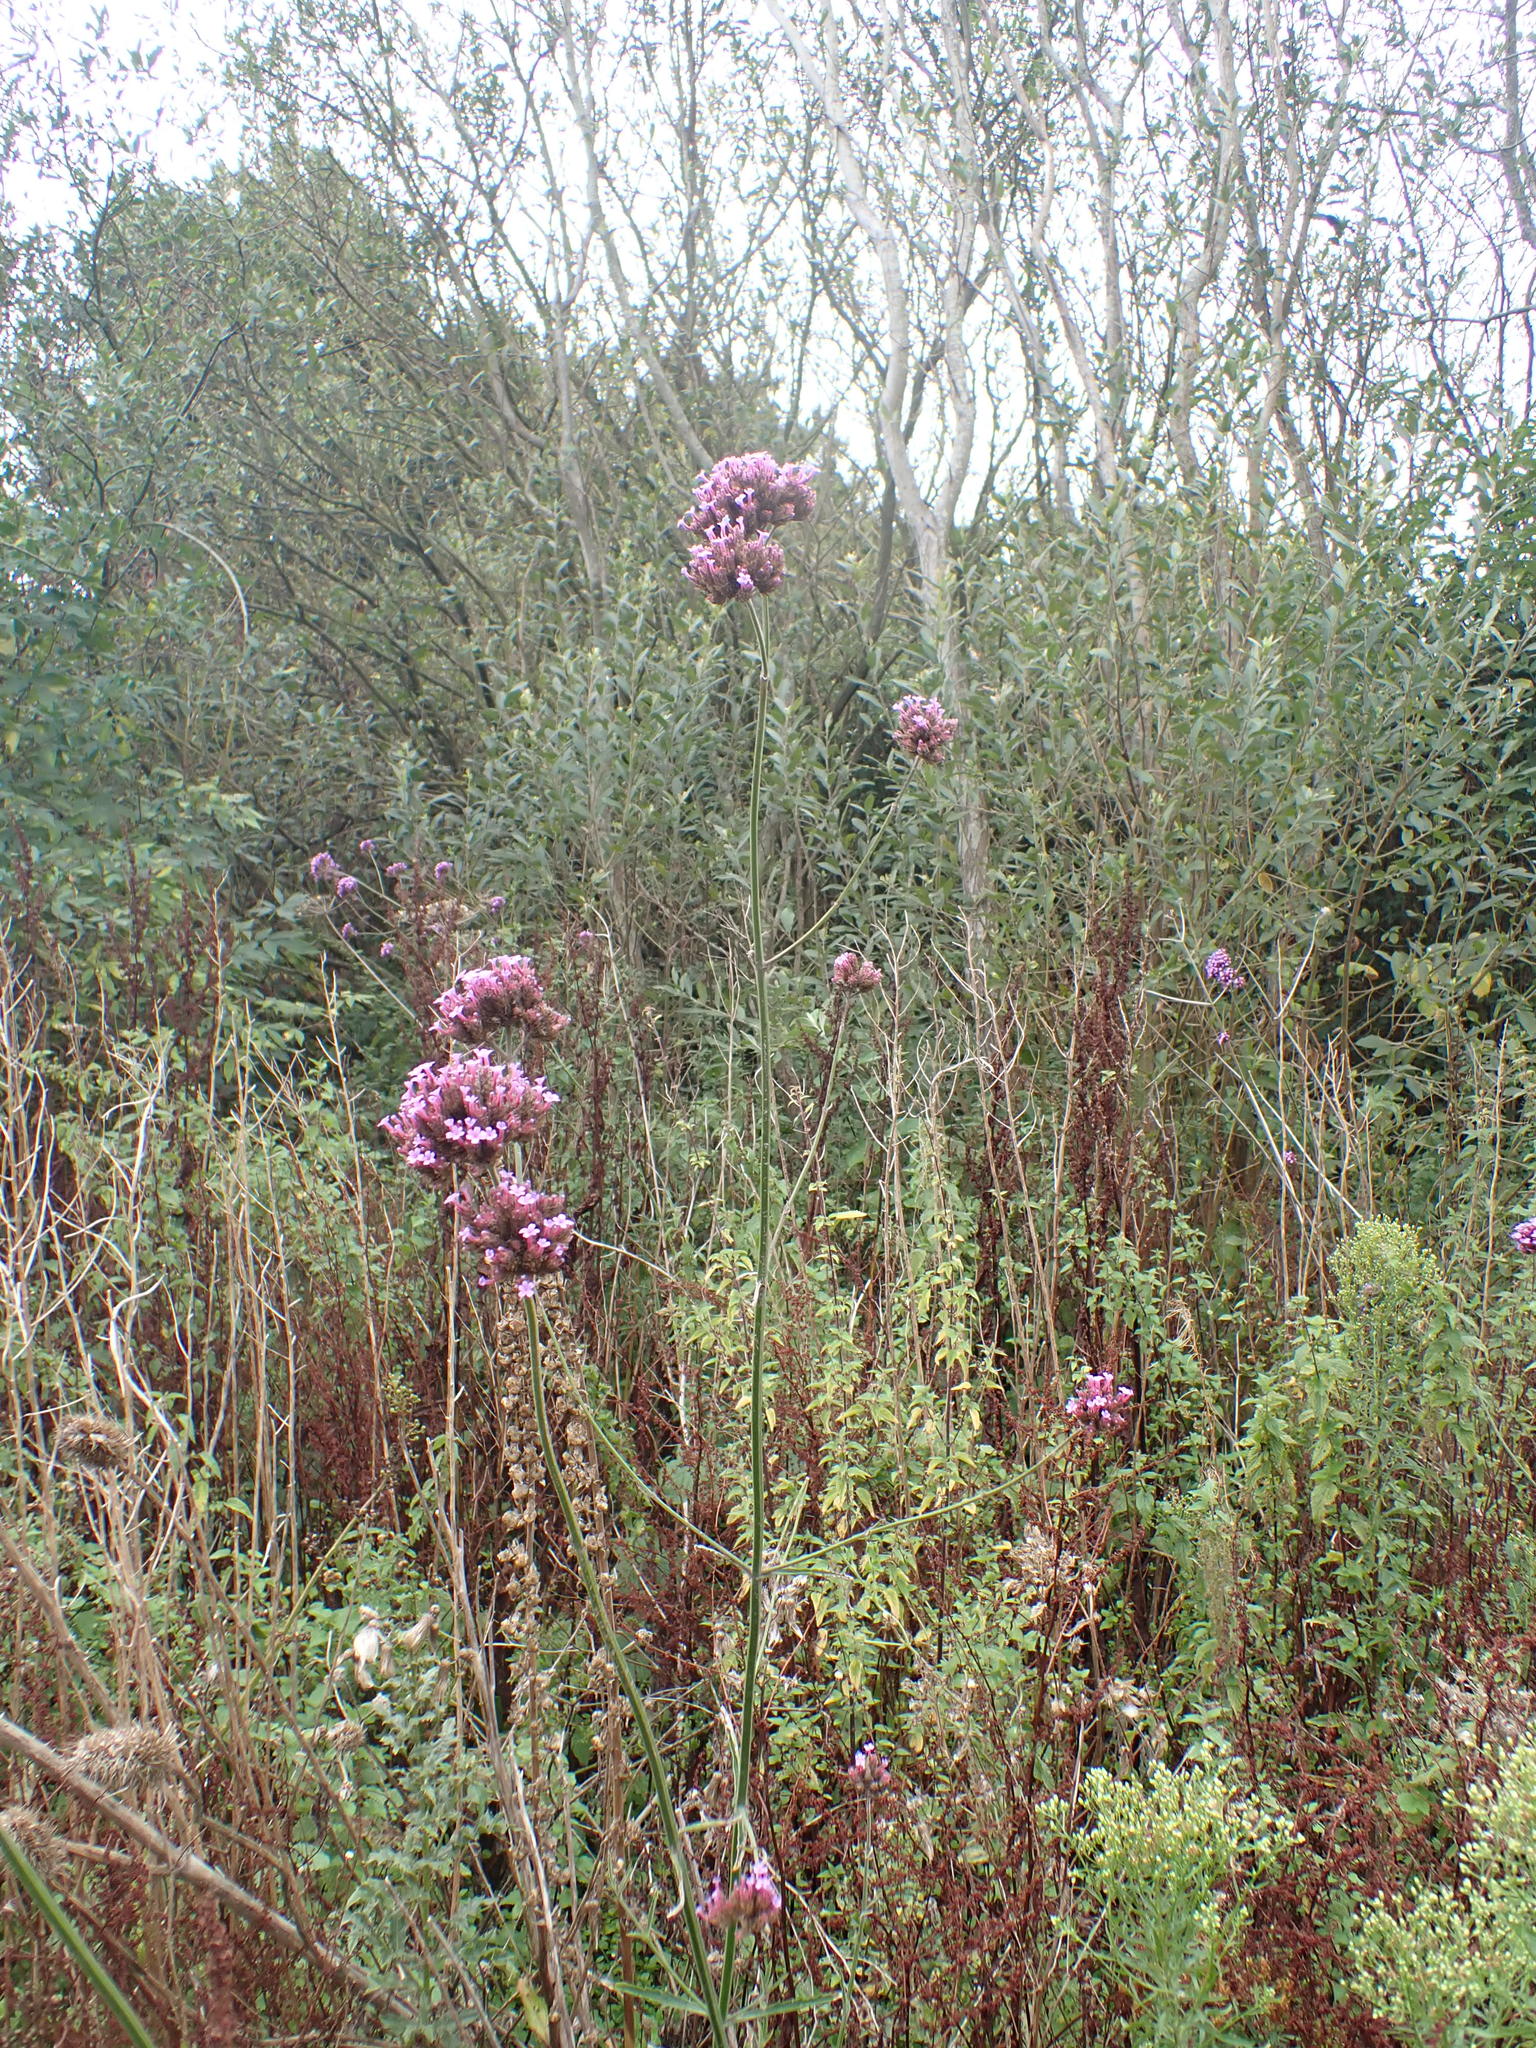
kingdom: Plantae
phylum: Tracheophyta
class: Magnoliopsida
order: Lamiales
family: Verbenaceae
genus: Verbena
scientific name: Verbena bonariensis
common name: Purpletop vervain
